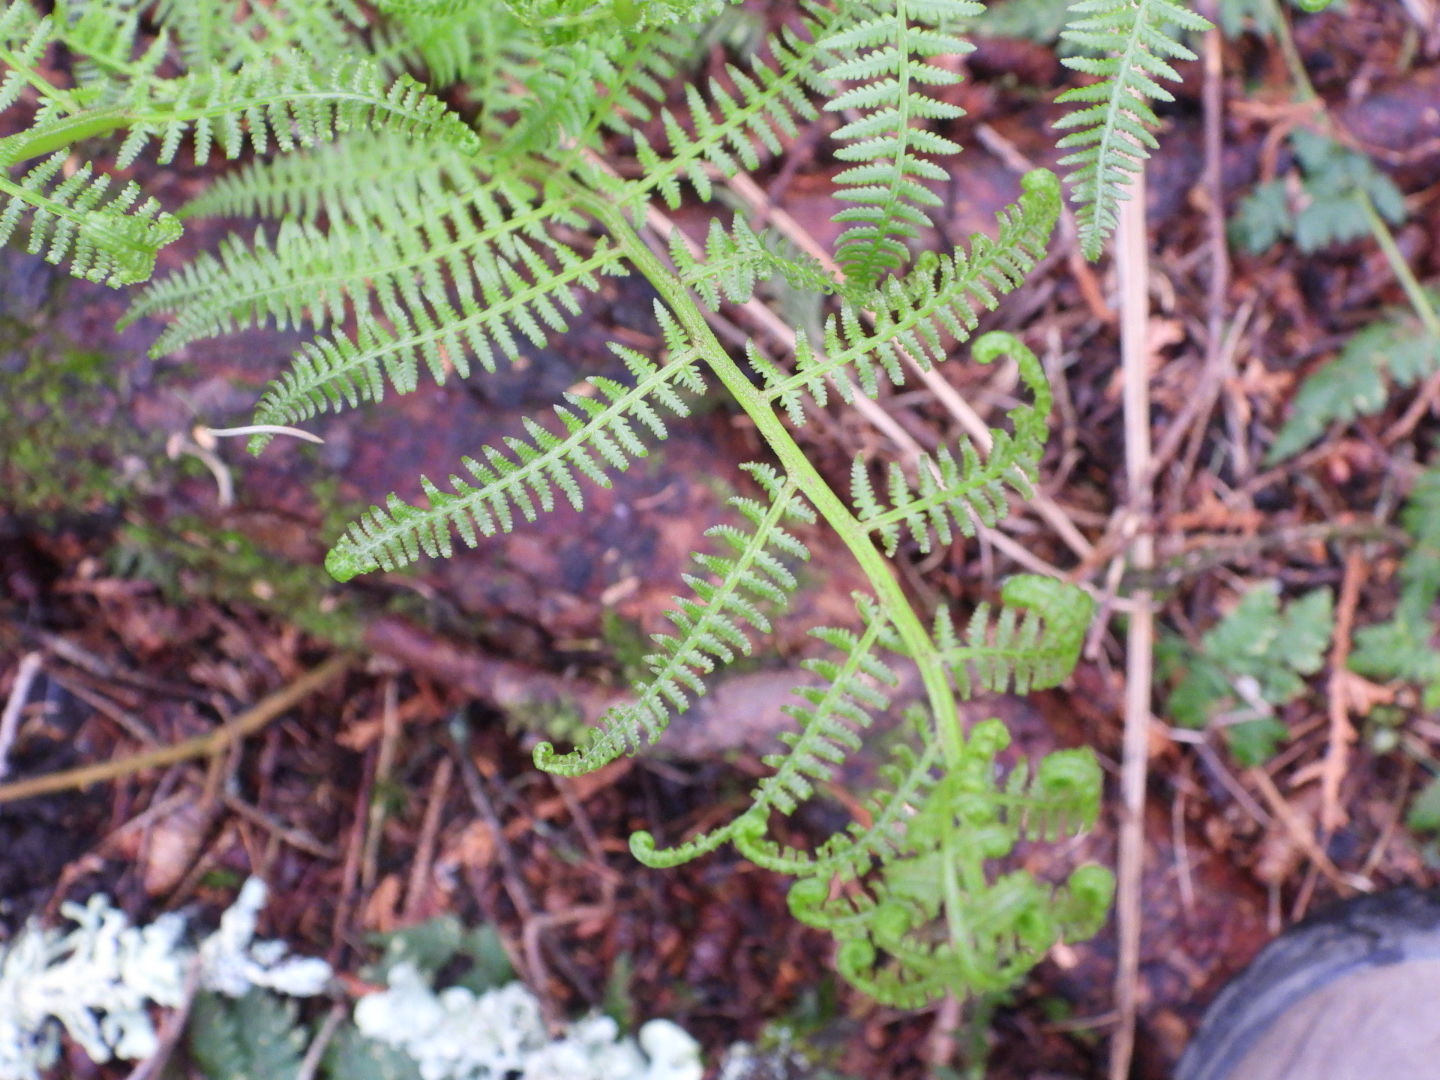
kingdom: Plantae
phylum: Tracheophyta
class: Polypodiopsida
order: Polypodiales
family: Athyriaceae
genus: Athyrium
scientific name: Athyrium angustum
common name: Northern lady fern
